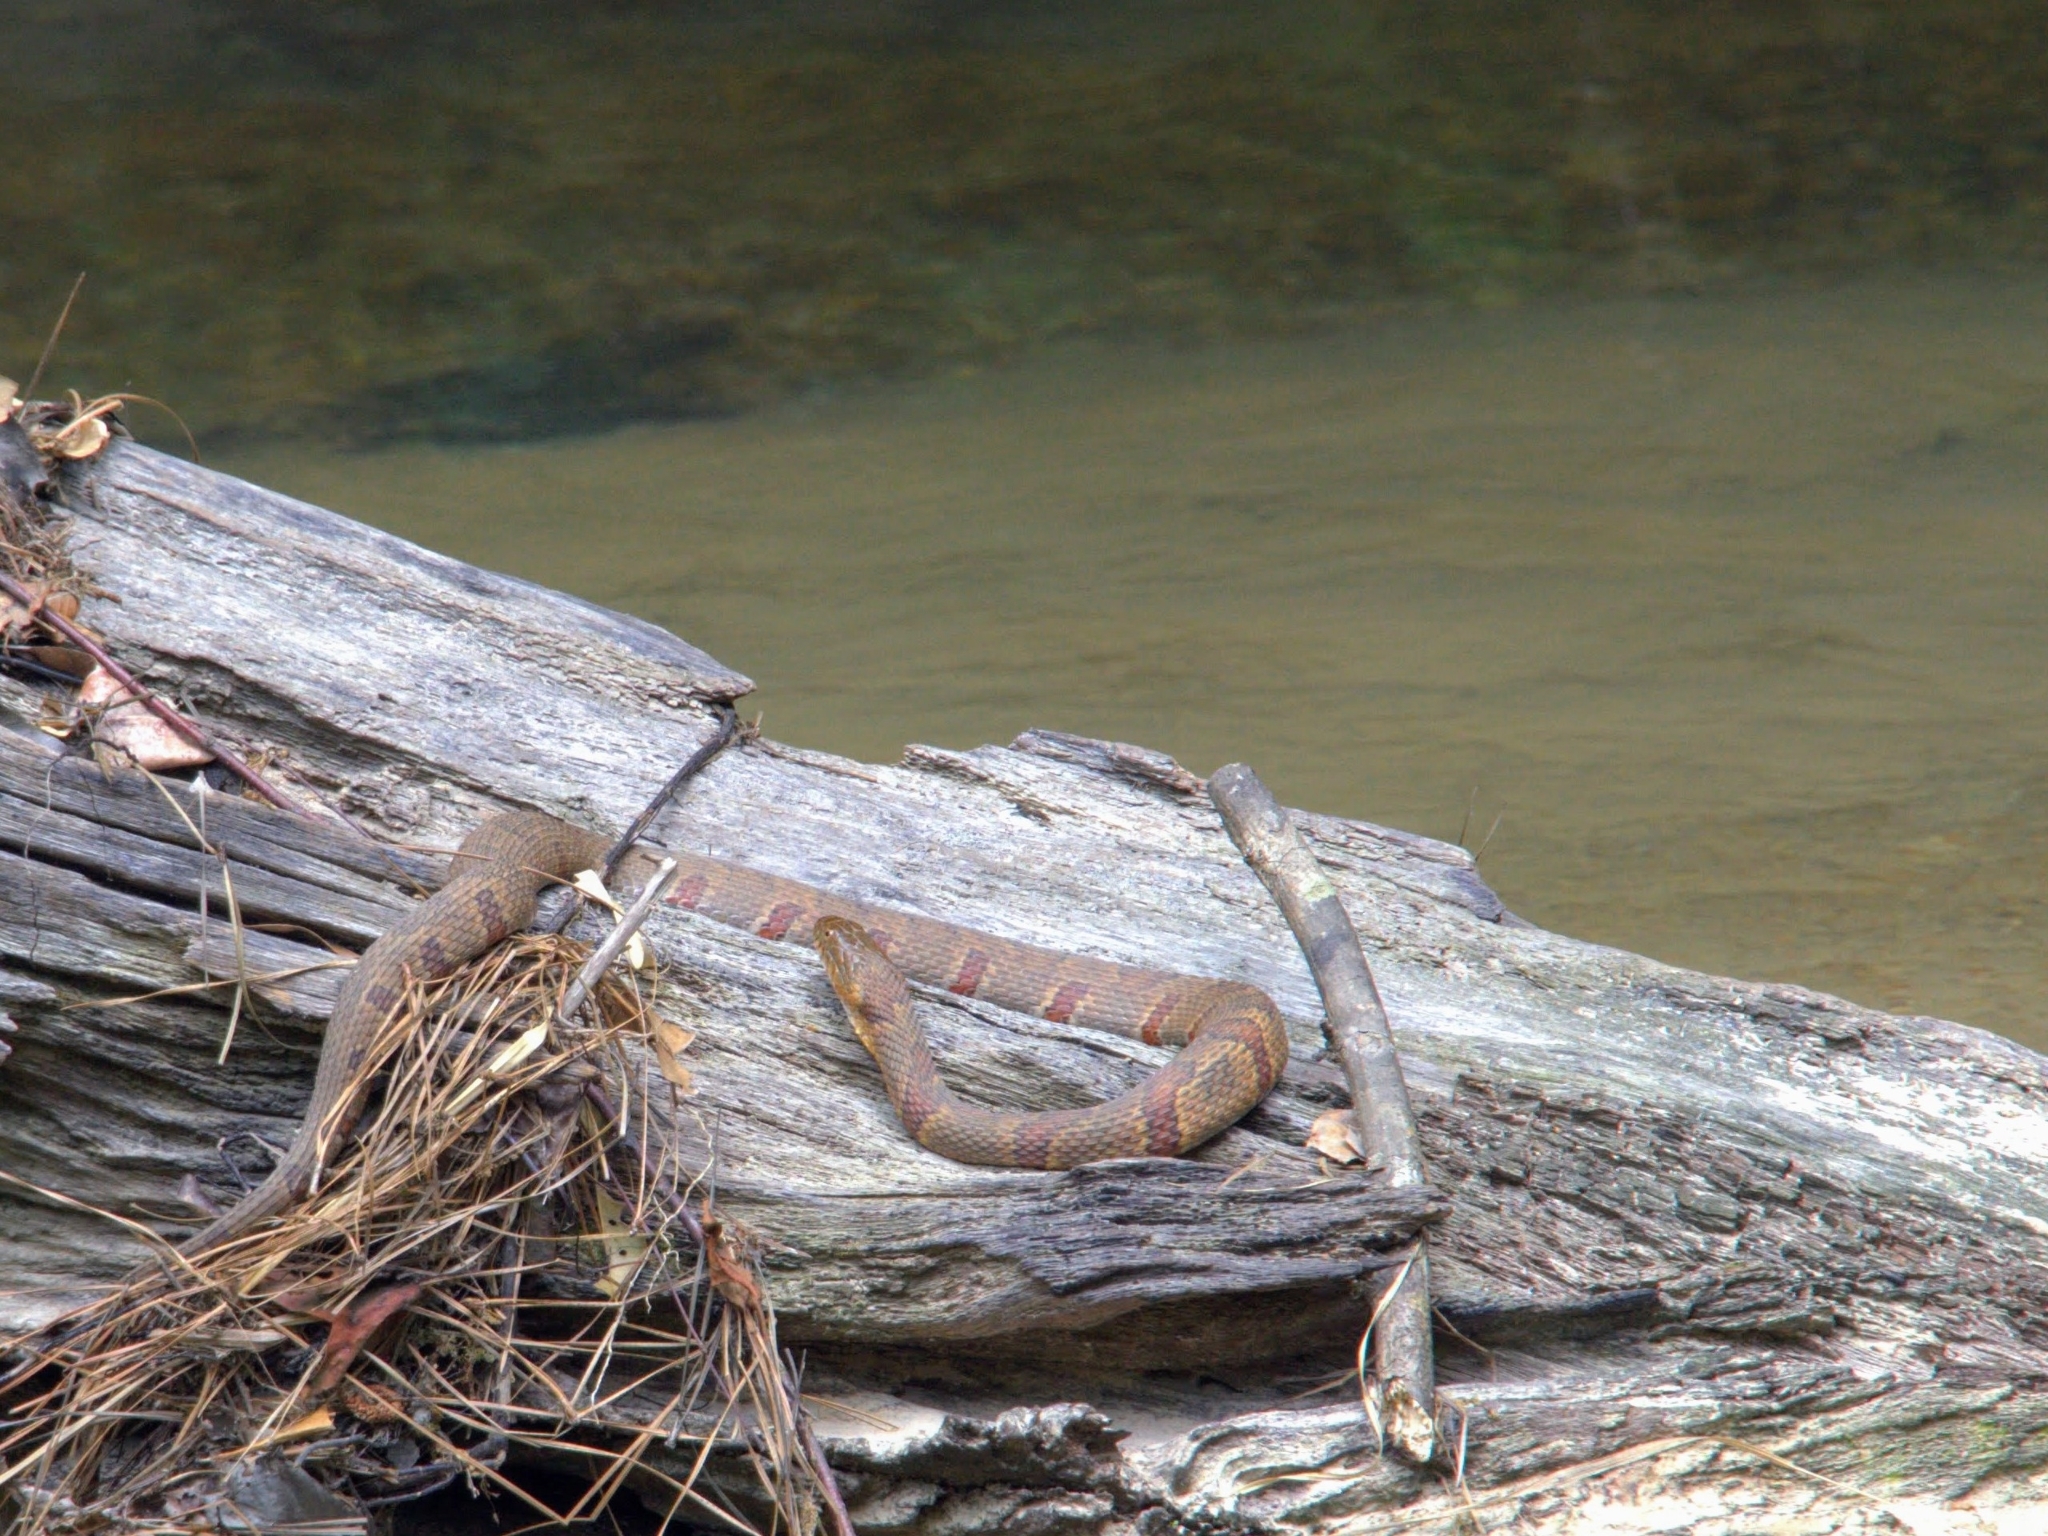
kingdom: Animalia
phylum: Chordata
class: Squamata
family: Colubridae
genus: Nerodia
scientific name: Nerodia sipedon
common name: Northern water snake
